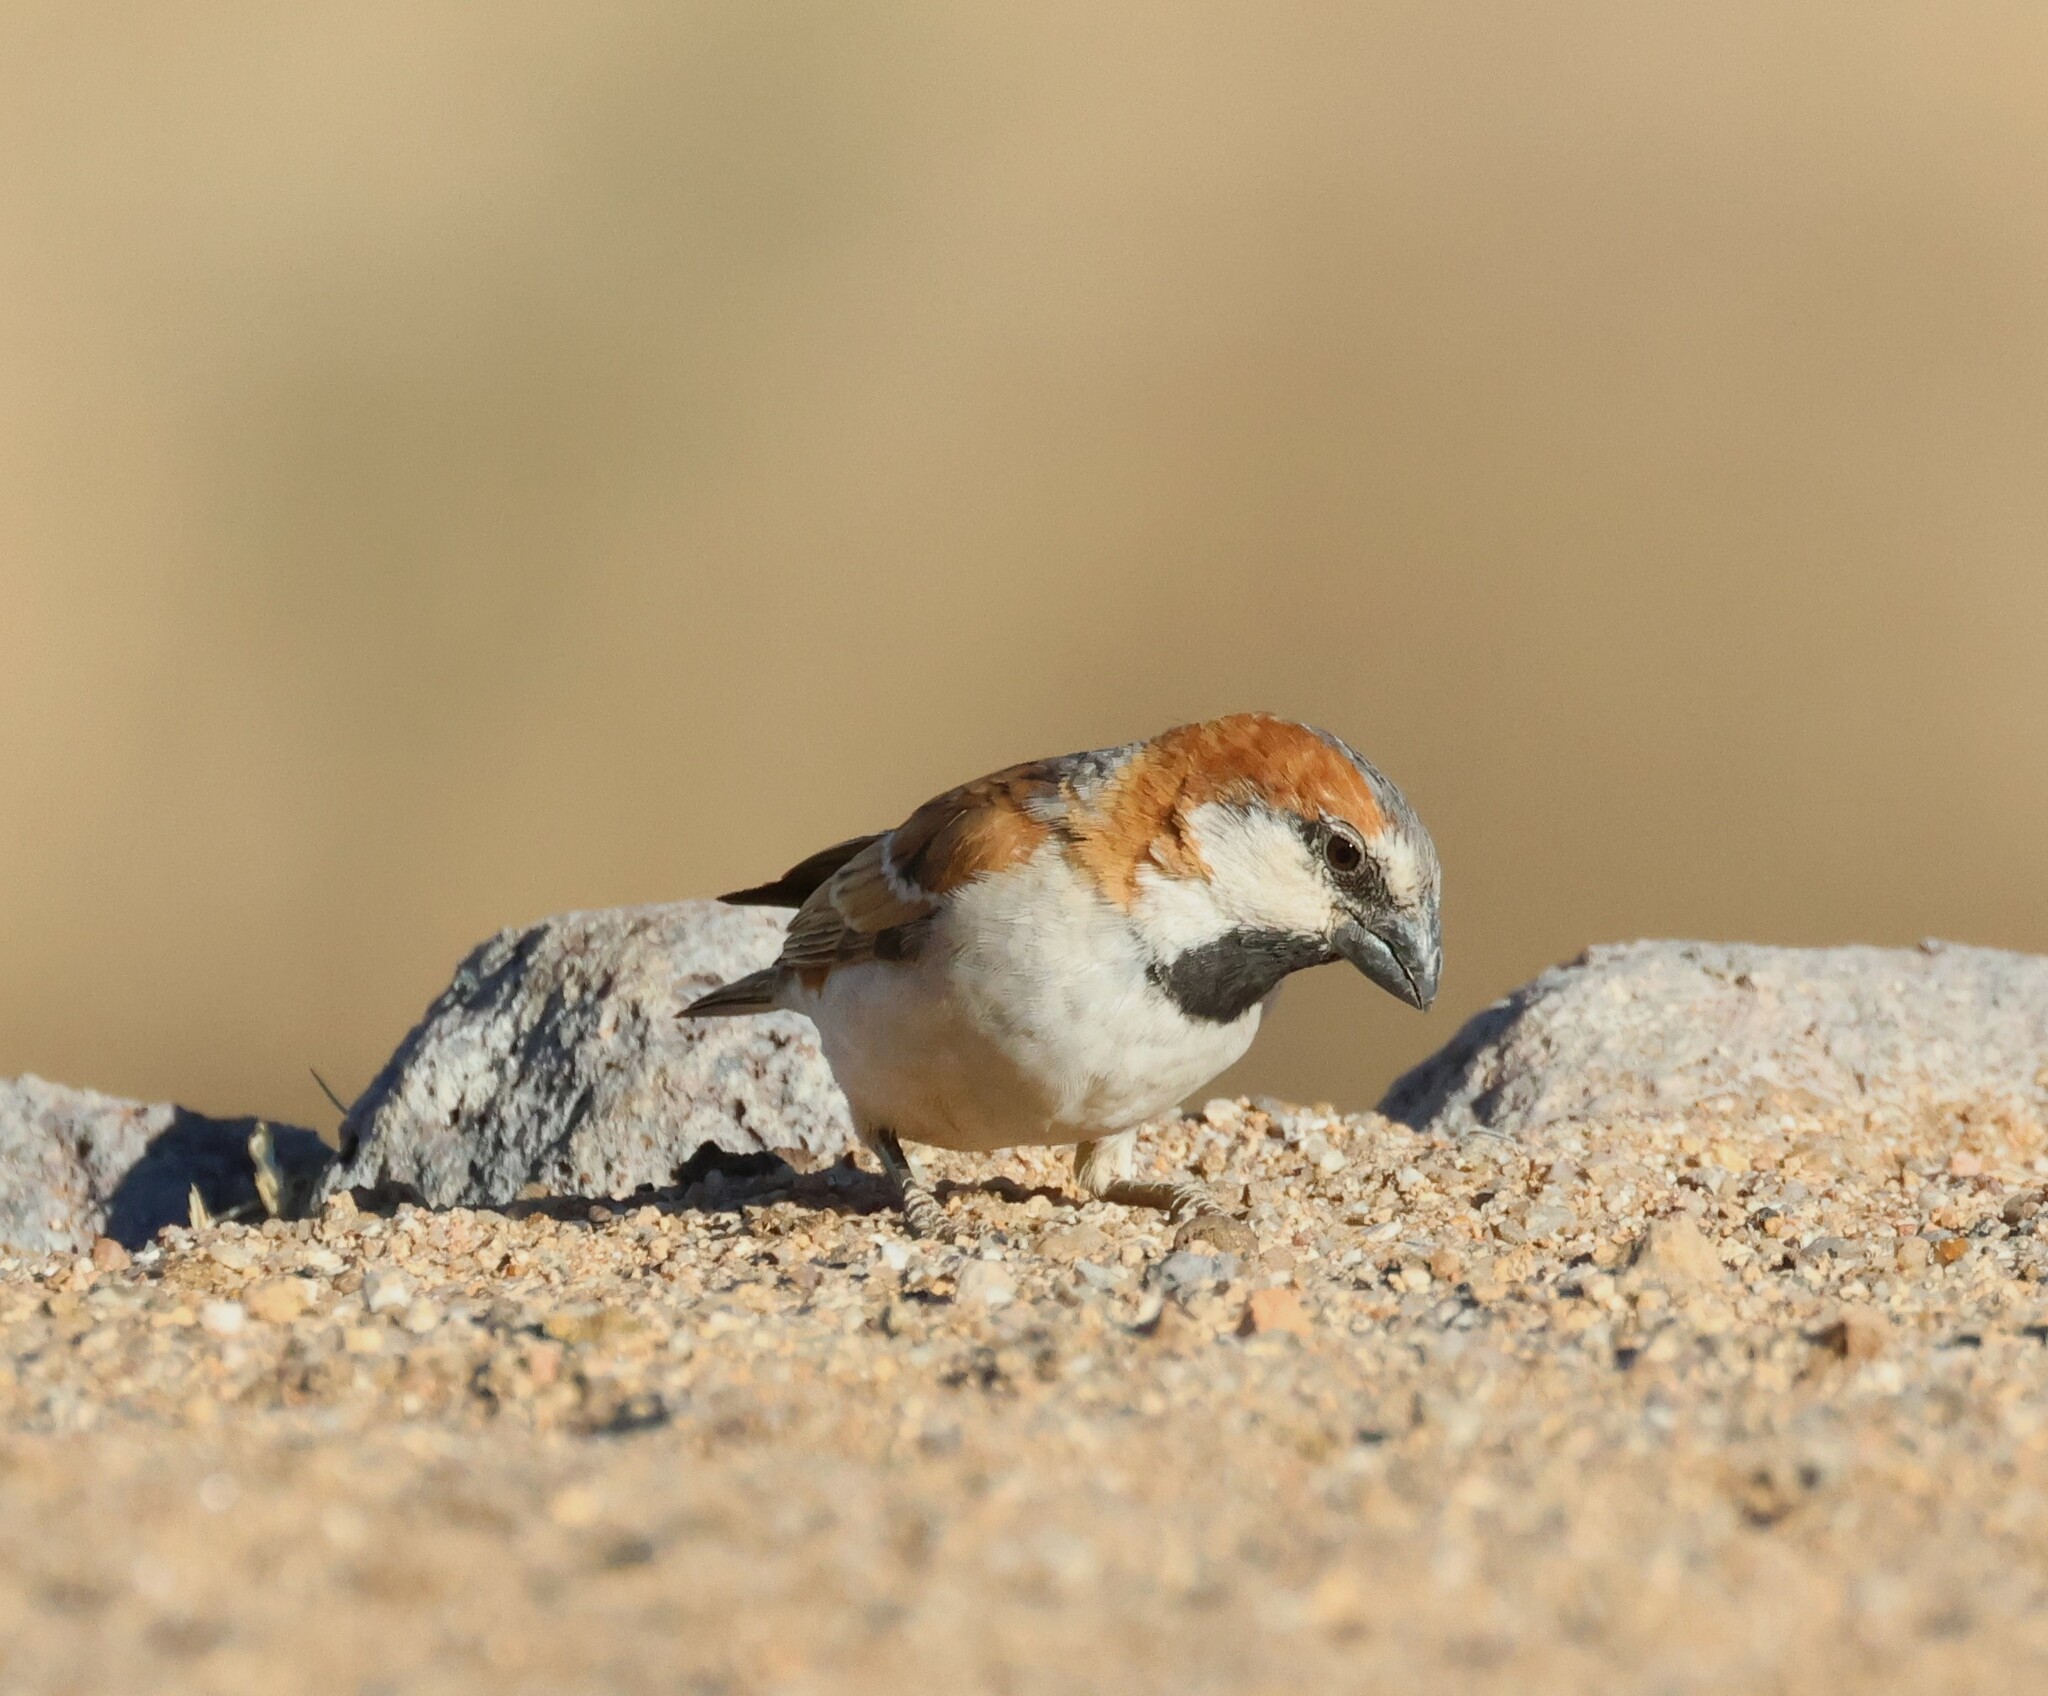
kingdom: Animalia
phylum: Chordata
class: Aves
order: Passeriformes
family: Passeridae
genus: Passer
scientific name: Passer motitensis
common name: Great sparrow
